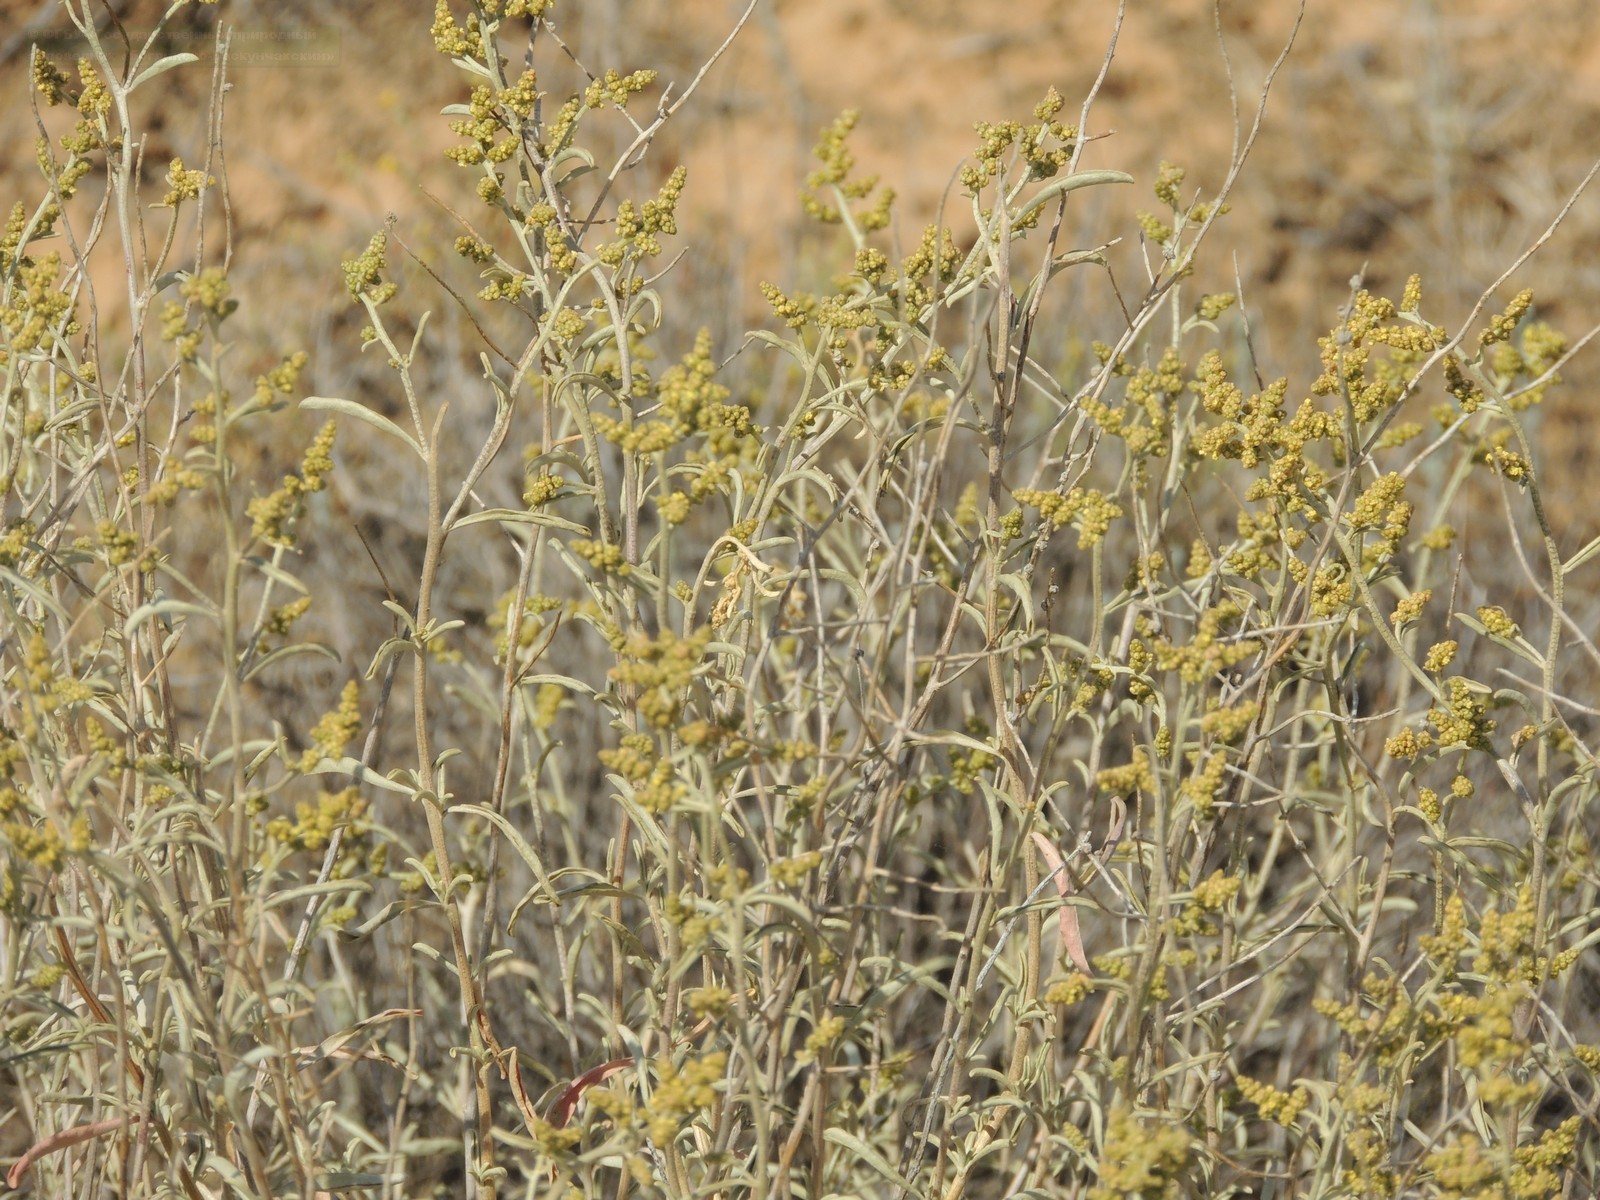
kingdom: Plantae
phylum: Tracheophyta
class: Magnoliopsida
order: Caryophyllales
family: Amaranthaceae
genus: Atriplex
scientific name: Atriplex cana
